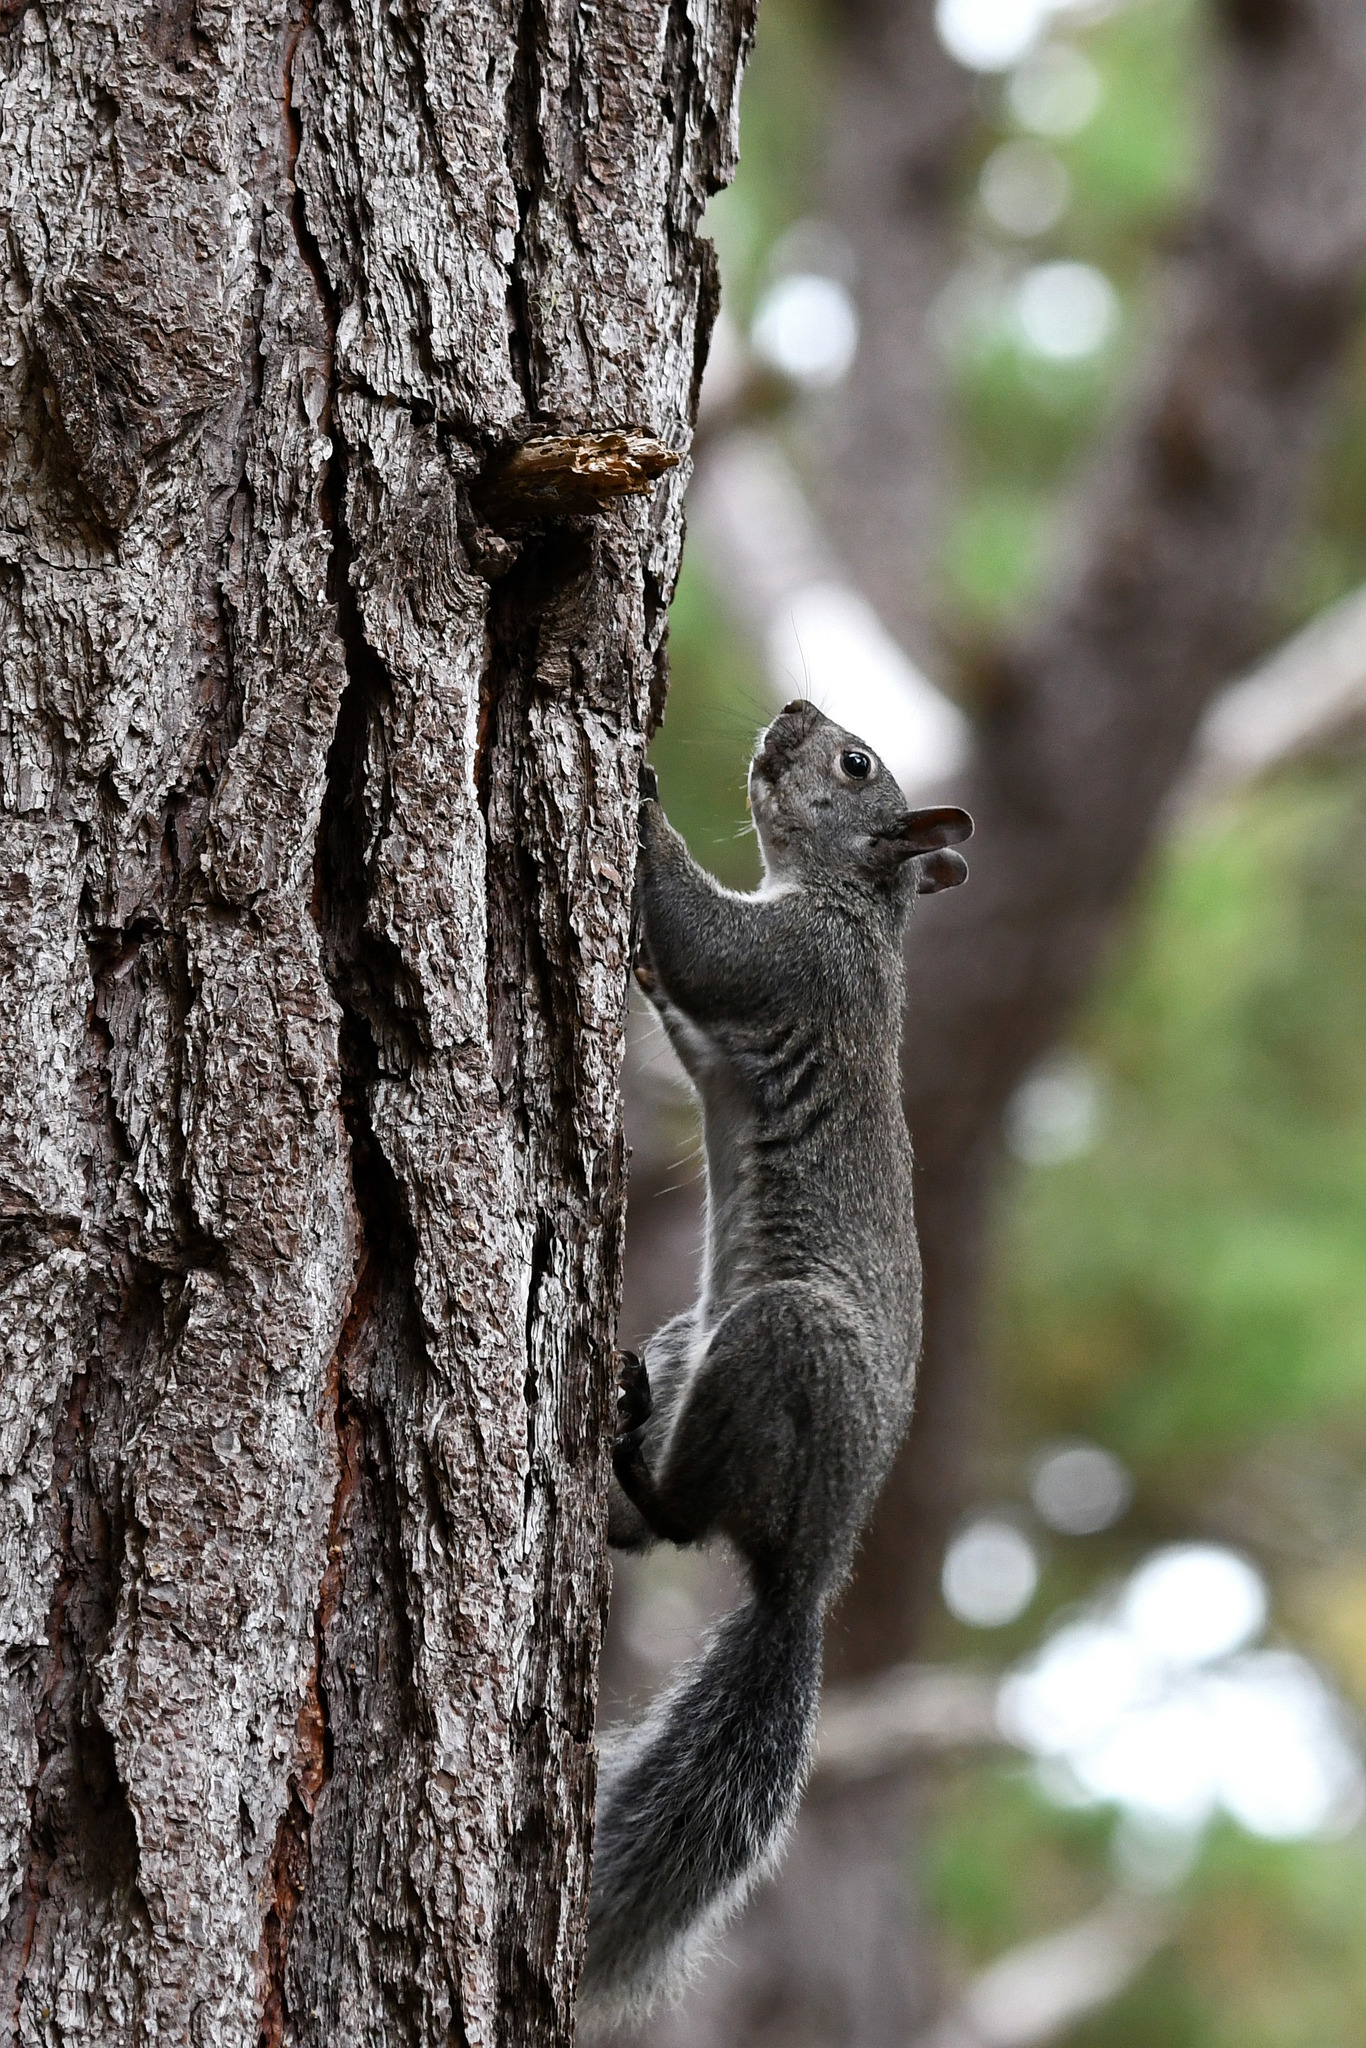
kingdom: Animalia
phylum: Chordata
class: Mammalia
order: Rodentia
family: Sciuridae
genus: Sciurus
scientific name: Sciurus griseus
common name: Western gray squirrel
